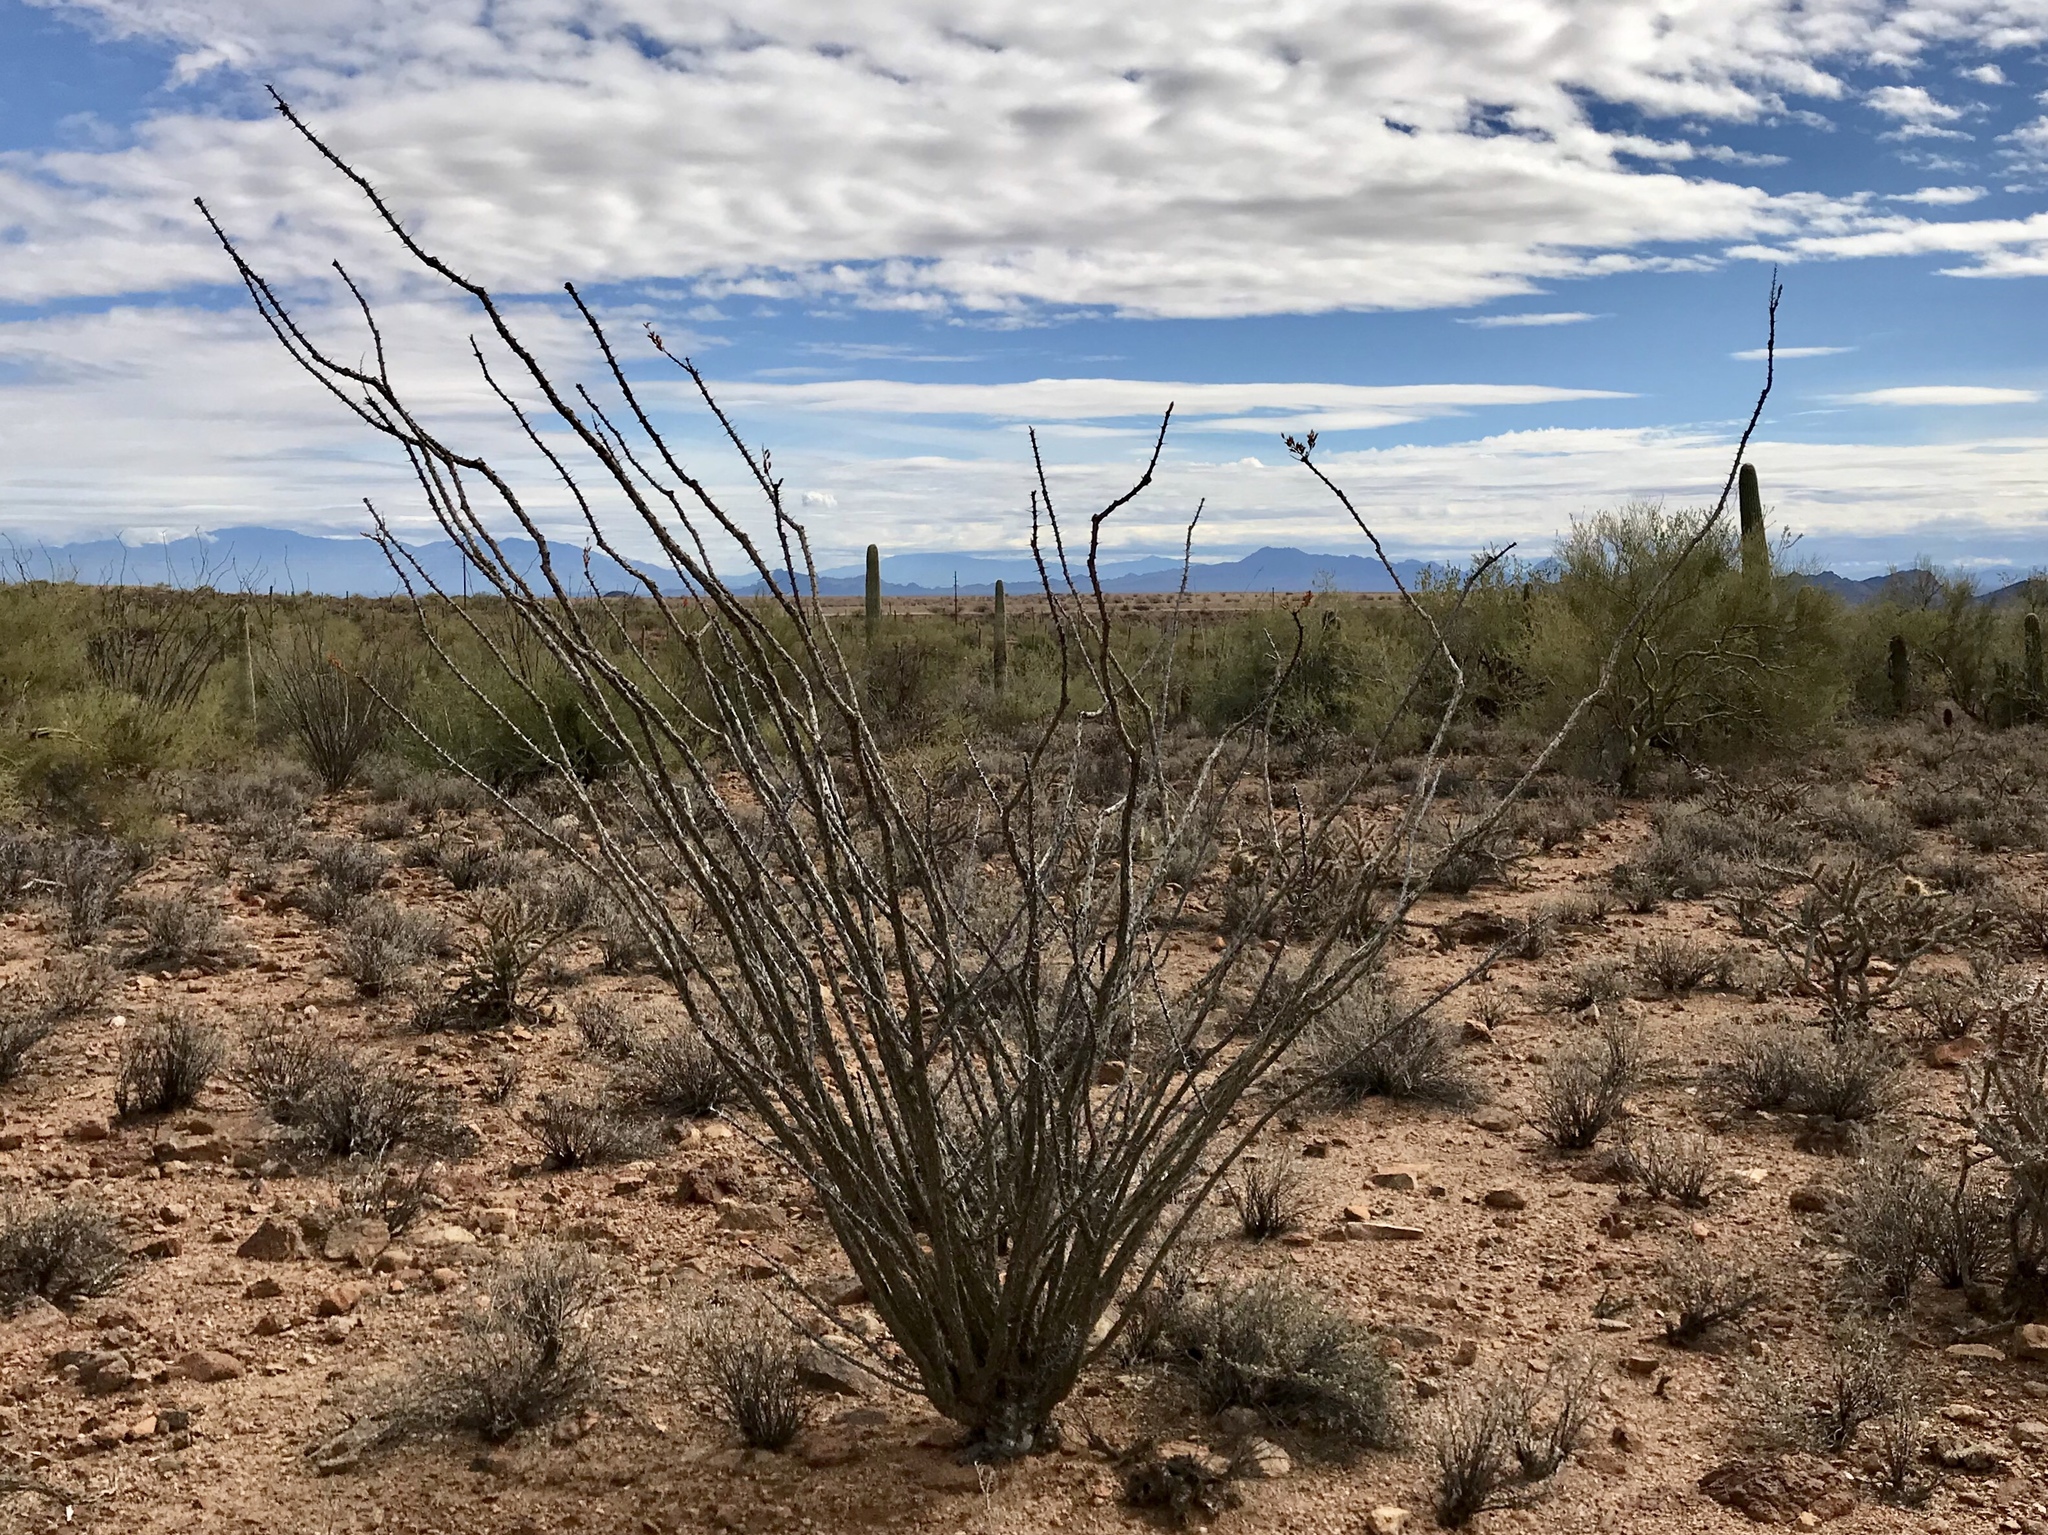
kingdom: Plantae
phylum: Tracheophyta
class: Magnoliopsida
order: Ericales
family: Fouquieriaceae
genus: Fouquieria
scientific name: Fouquieria splendens
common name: Vine-cactus
